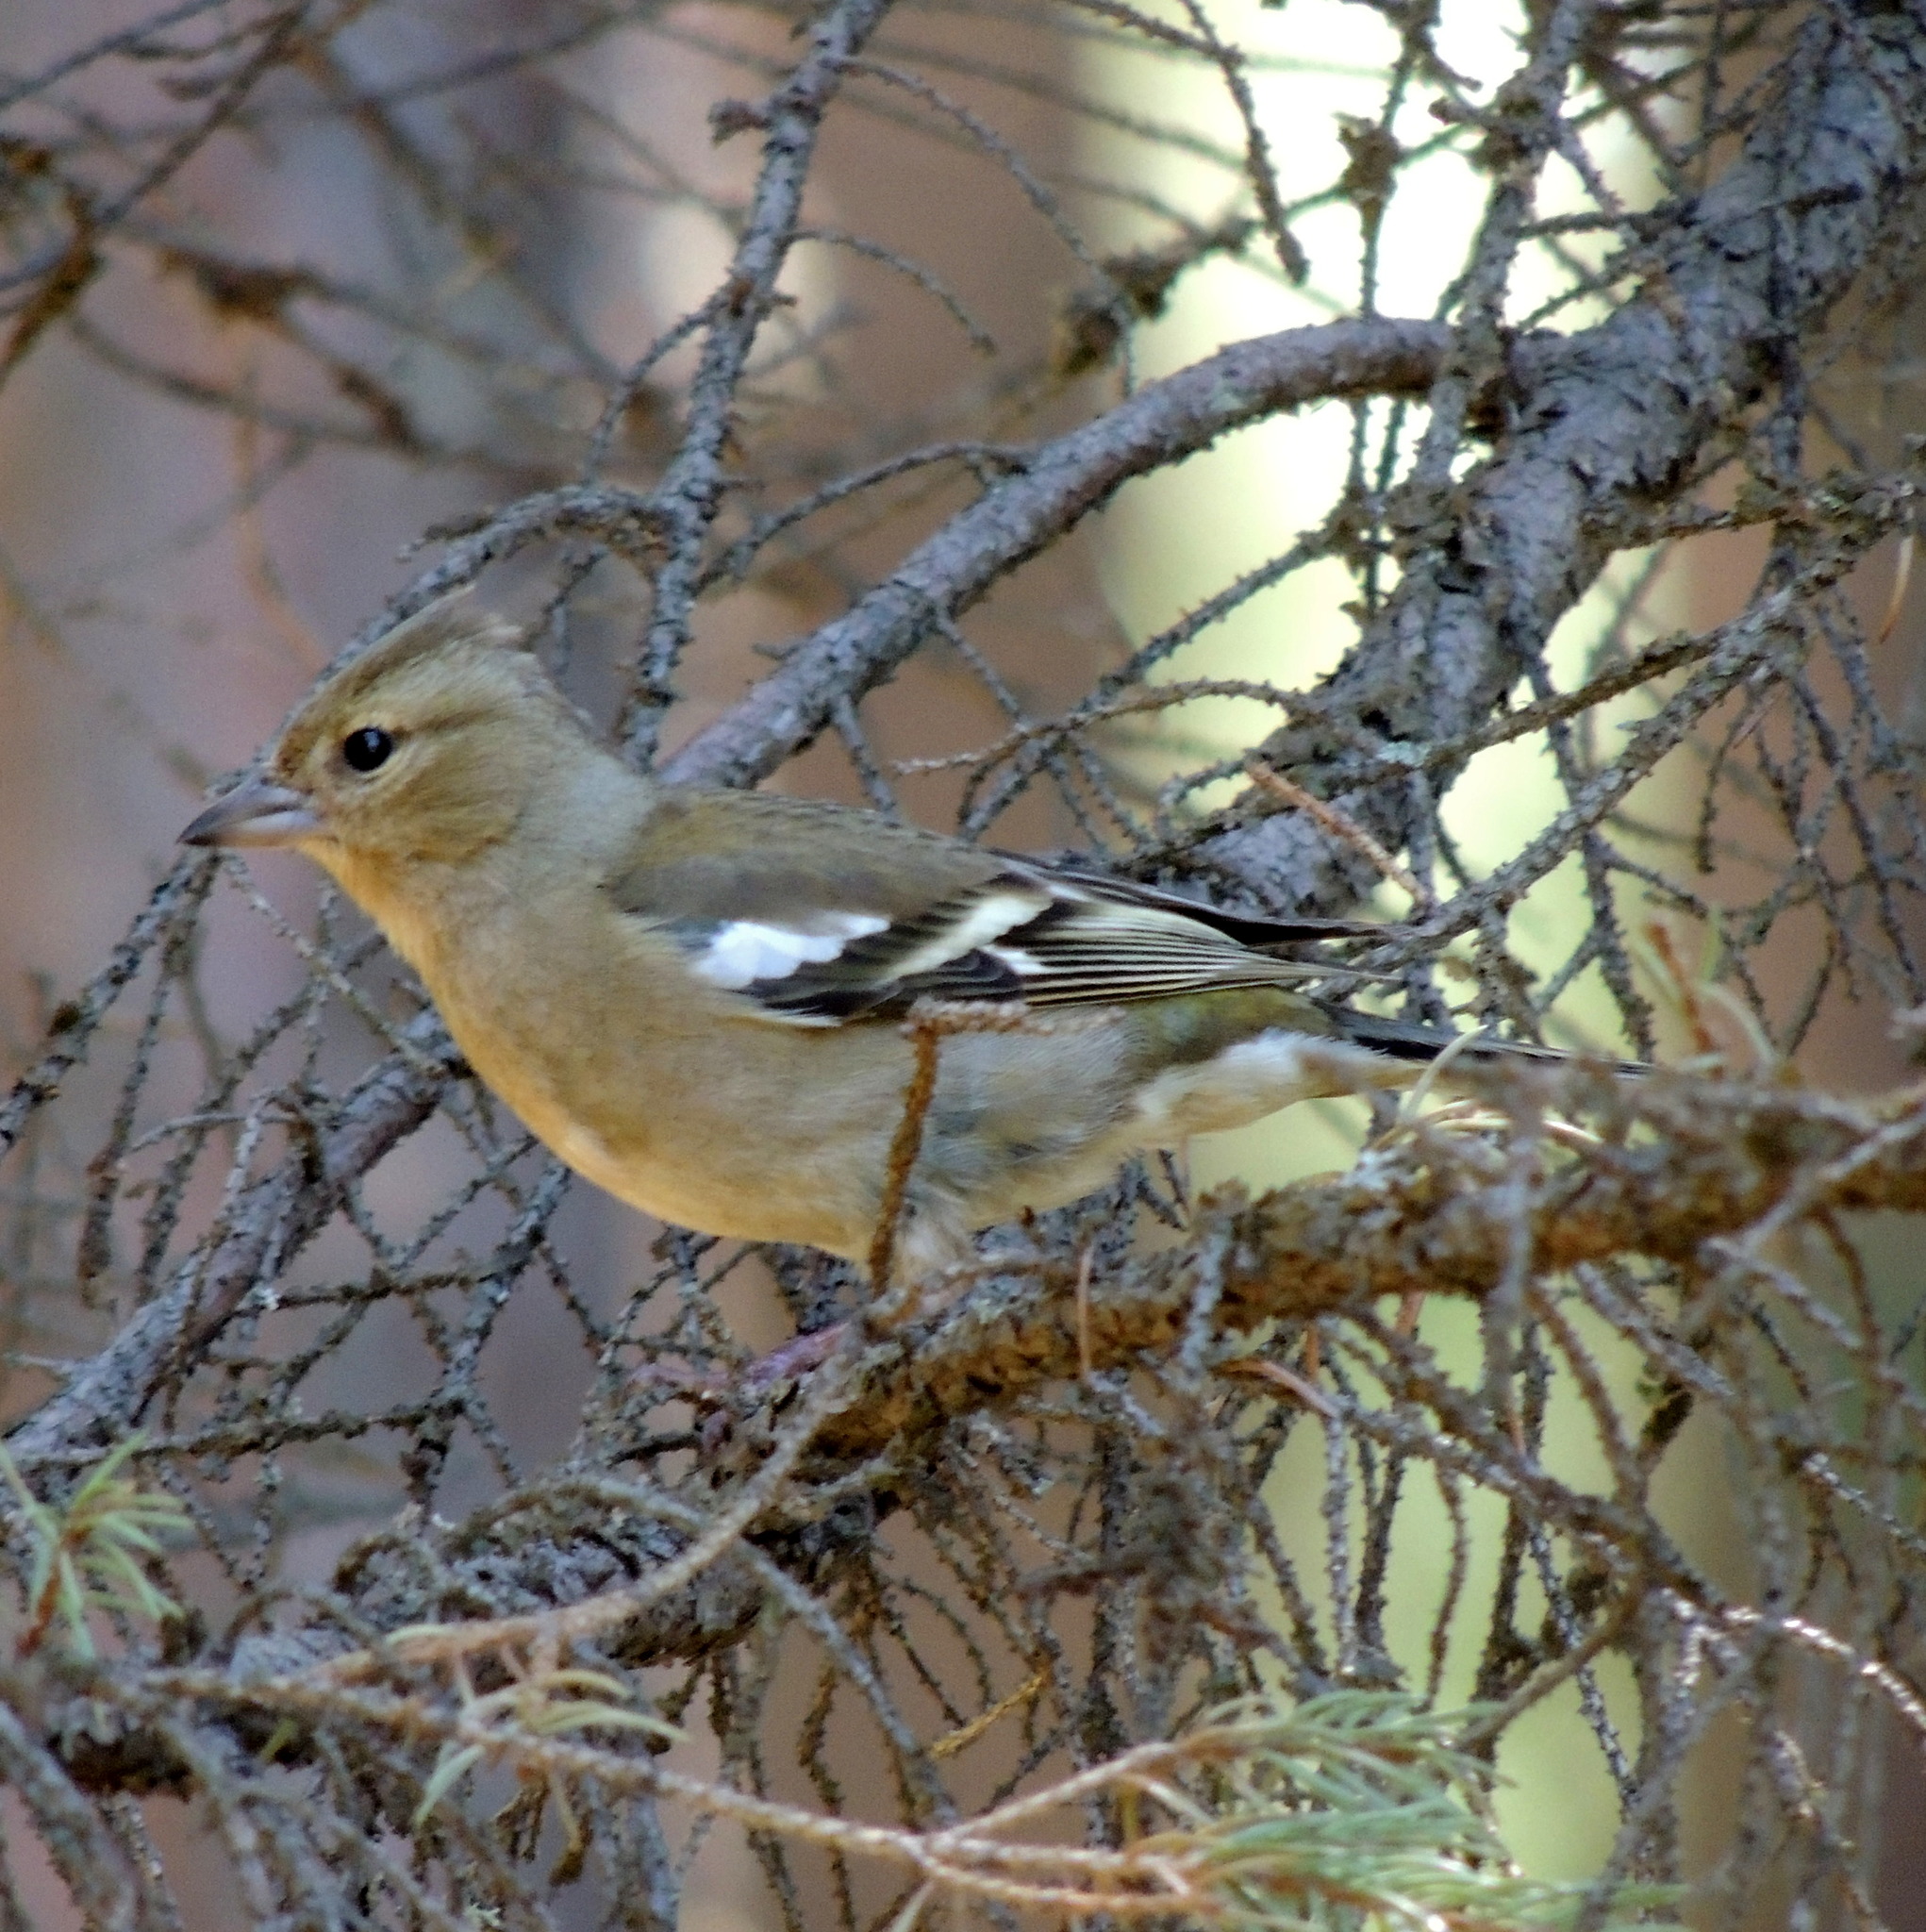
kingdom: Animalia
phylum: Chordata
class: Aves
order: Passeriformes
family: Fringillidae
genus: Fringilla
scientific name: Fringilla coelebs
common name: Common chaffinch
